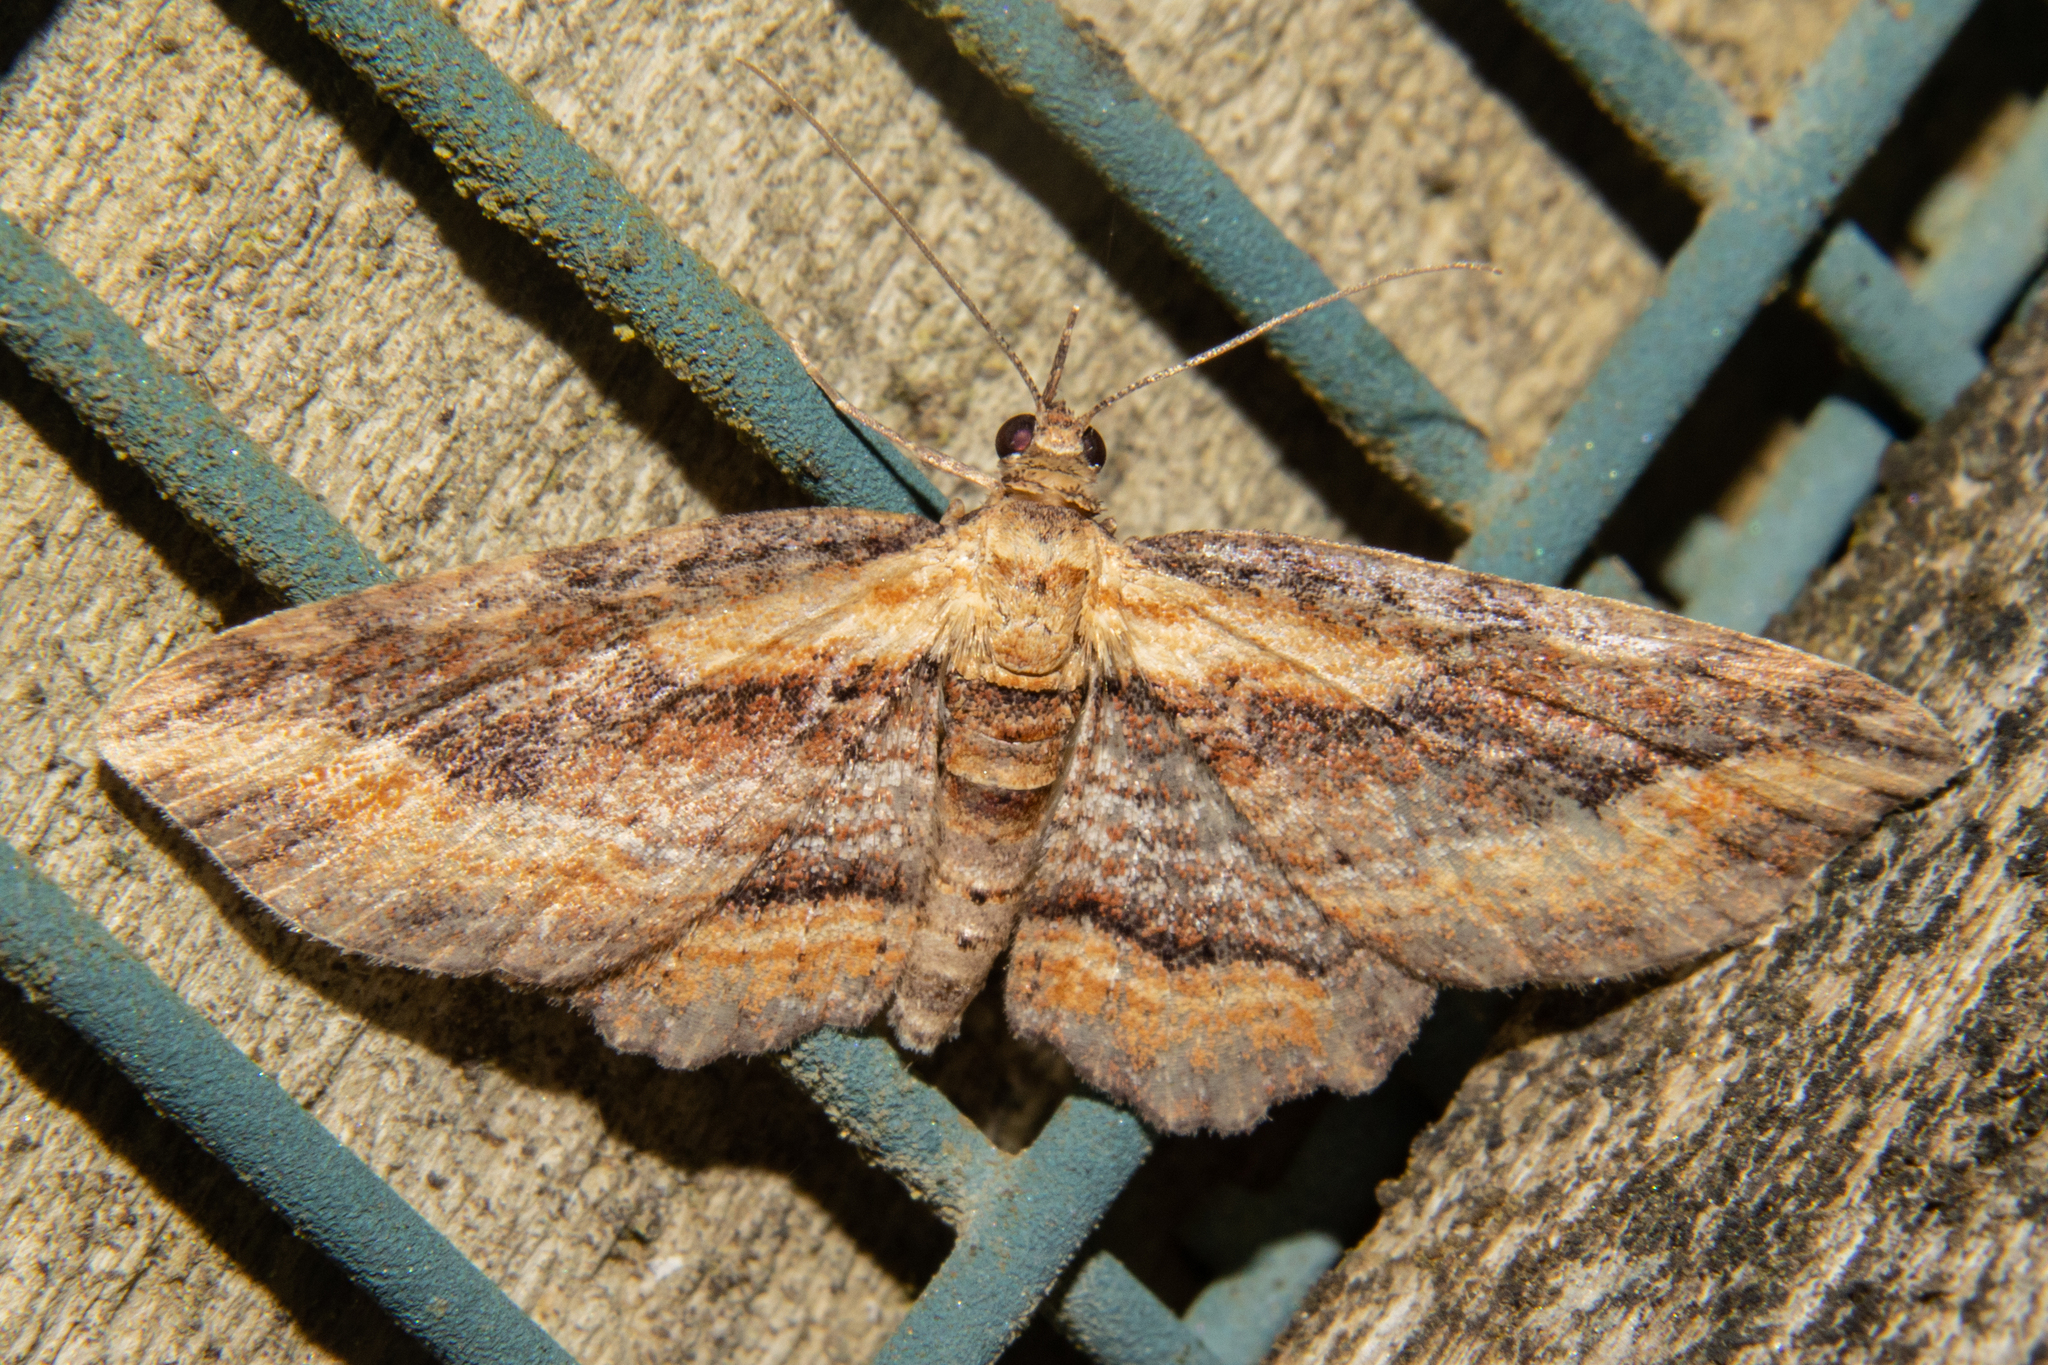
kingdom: Animalia
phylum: Arthropoda
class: Insecta
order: Lepidoptera
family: Geometridae
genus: Chloroclystis
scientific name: Chloroclystis filata
